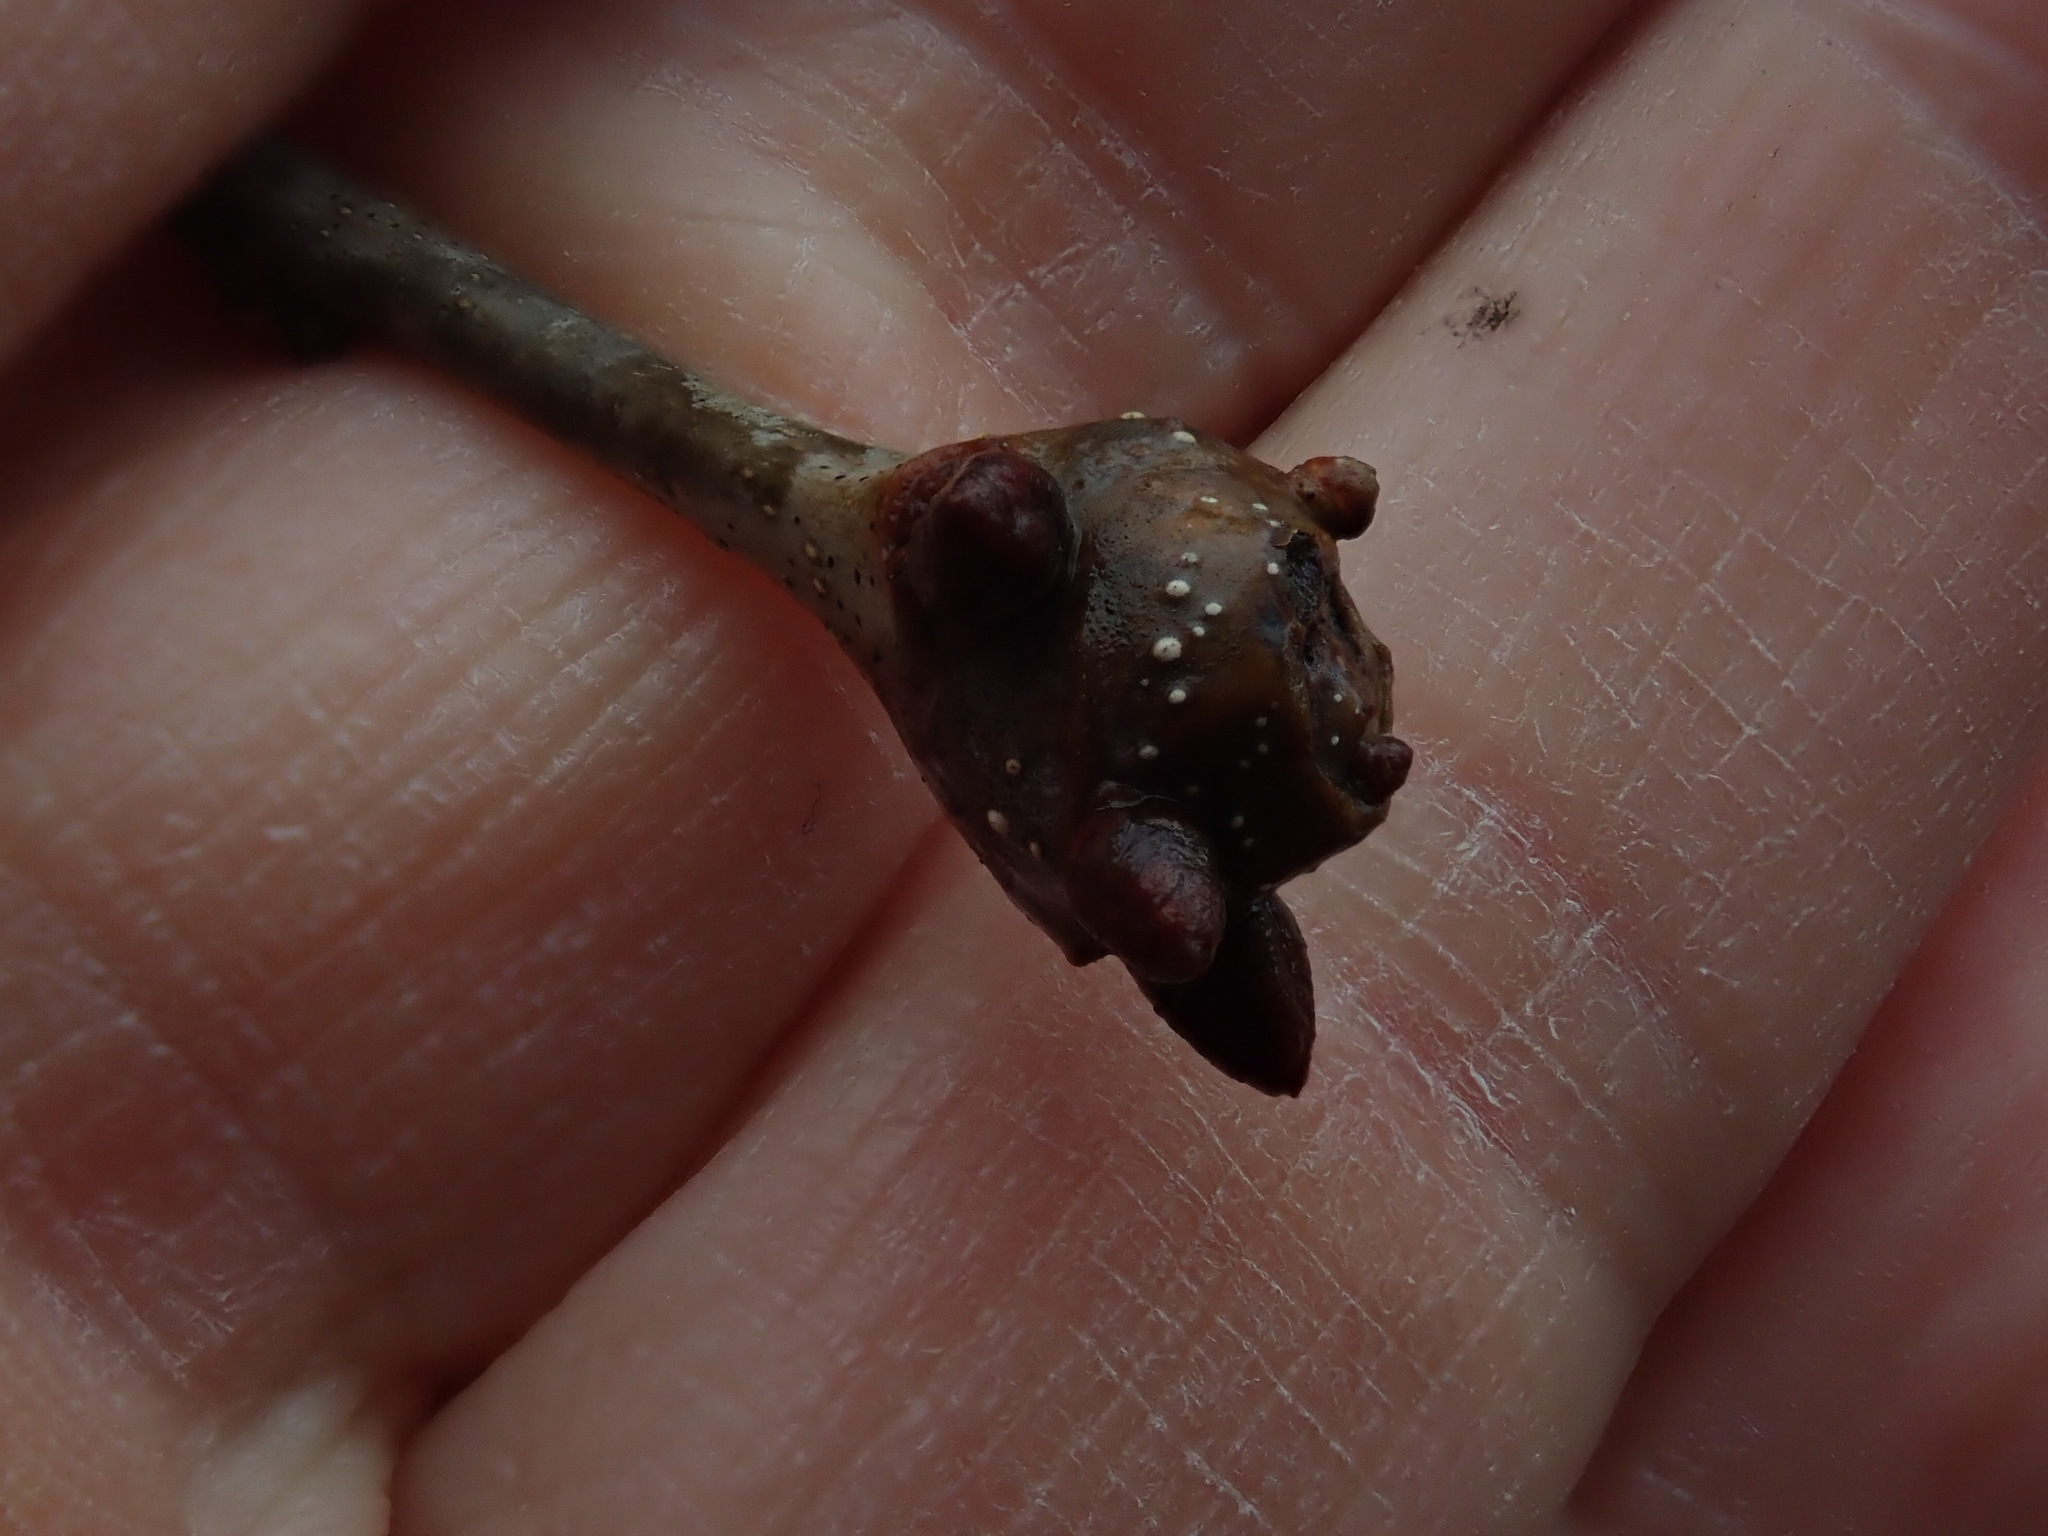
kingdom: Animalia
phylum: Arthropoda
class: Insecta
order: Hymenoptera
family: Cynipidae
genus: Callirhytis
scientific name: Callirhytis clavula
